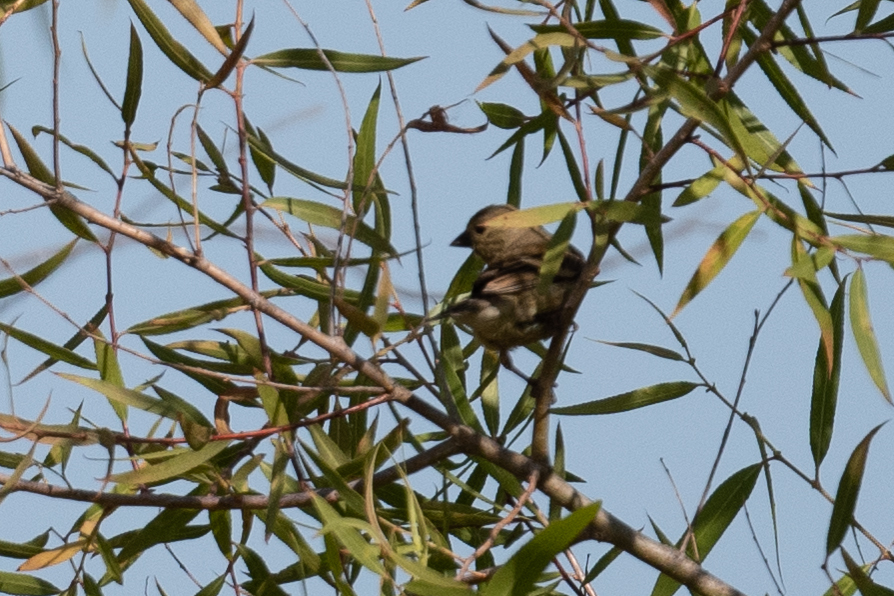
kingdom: Animalia
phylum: Chordata
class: Aves
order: Passeriformes
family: Fringillidae
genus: Spinus
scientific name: Spinus tristis
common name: American goldfinch
